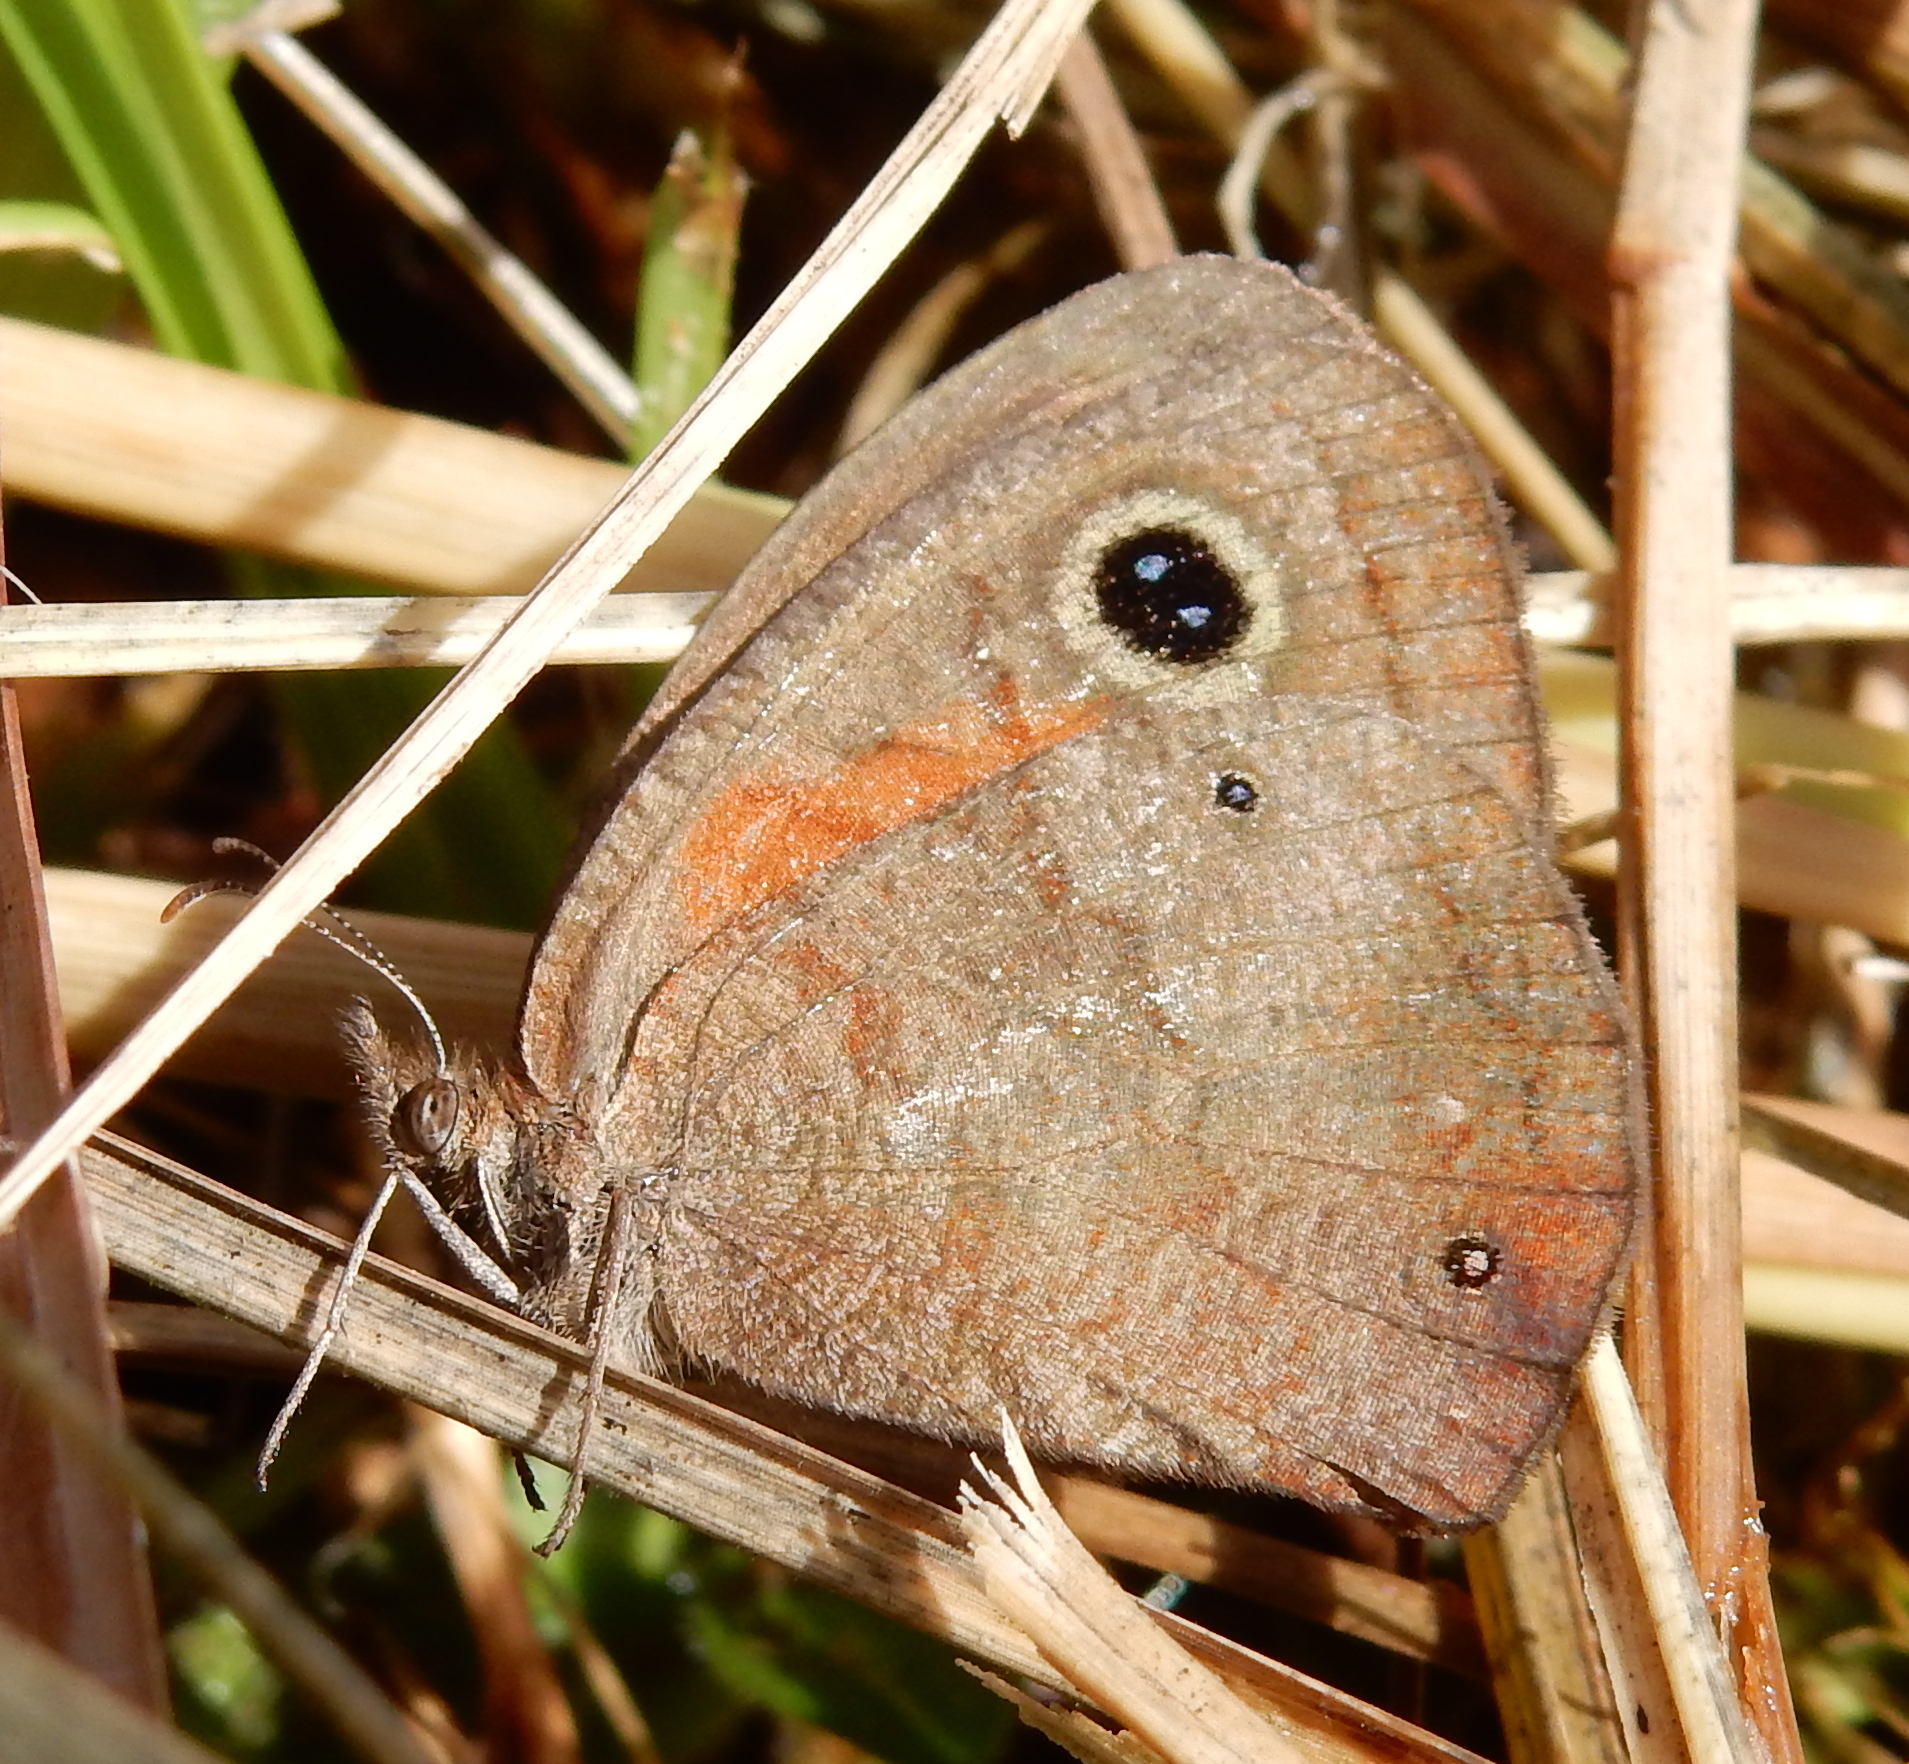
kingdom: Animalia
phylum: Arthropoda
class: Insecta
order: Lepidoptera
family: Nymphalidae
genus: Cassionympha
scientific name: Cassionympha cassius
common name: Rainforest brown
